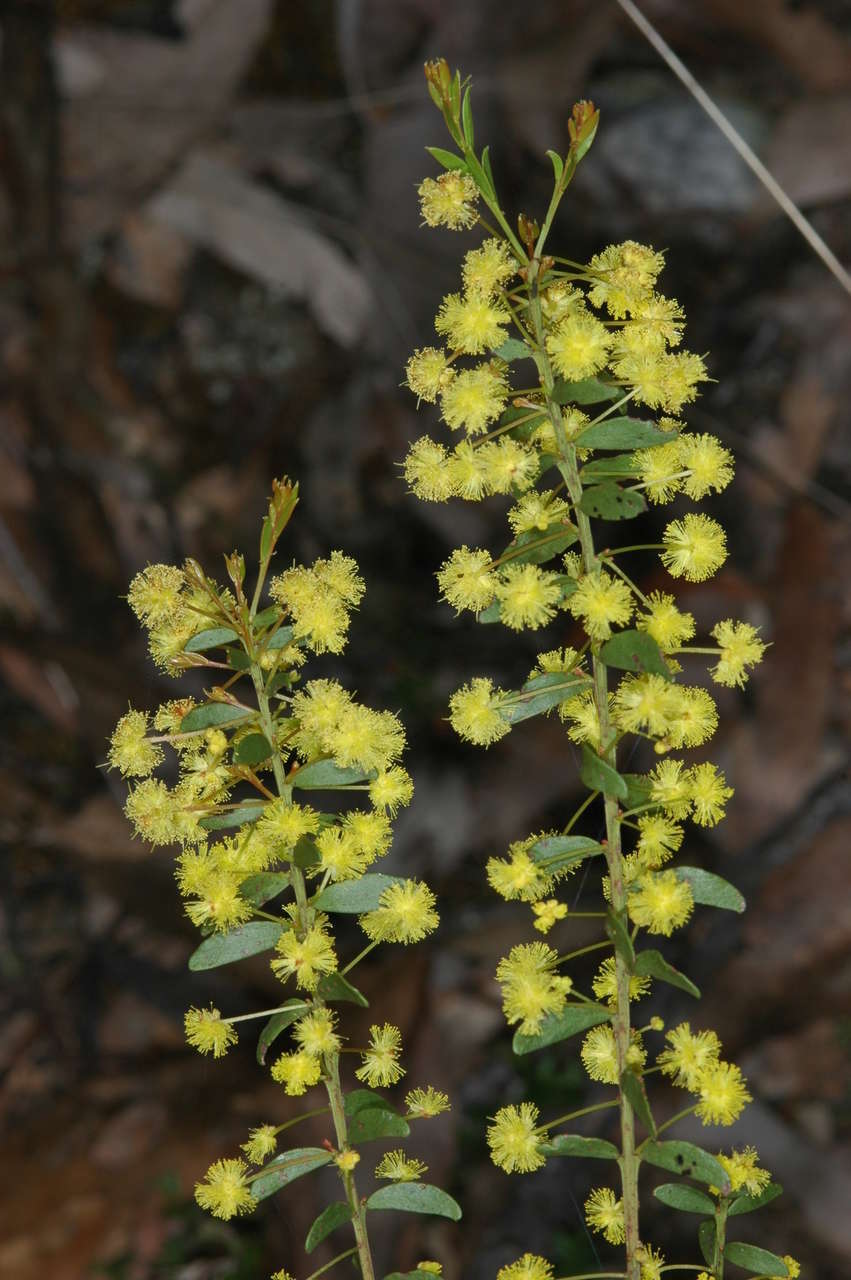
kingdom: Plantae
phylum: Tracheophyta
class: Magnoliopsida
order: Fabales
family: Fabaceae
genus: Acacia
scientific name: Acacia acinacea
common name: Gold-dust acacia
